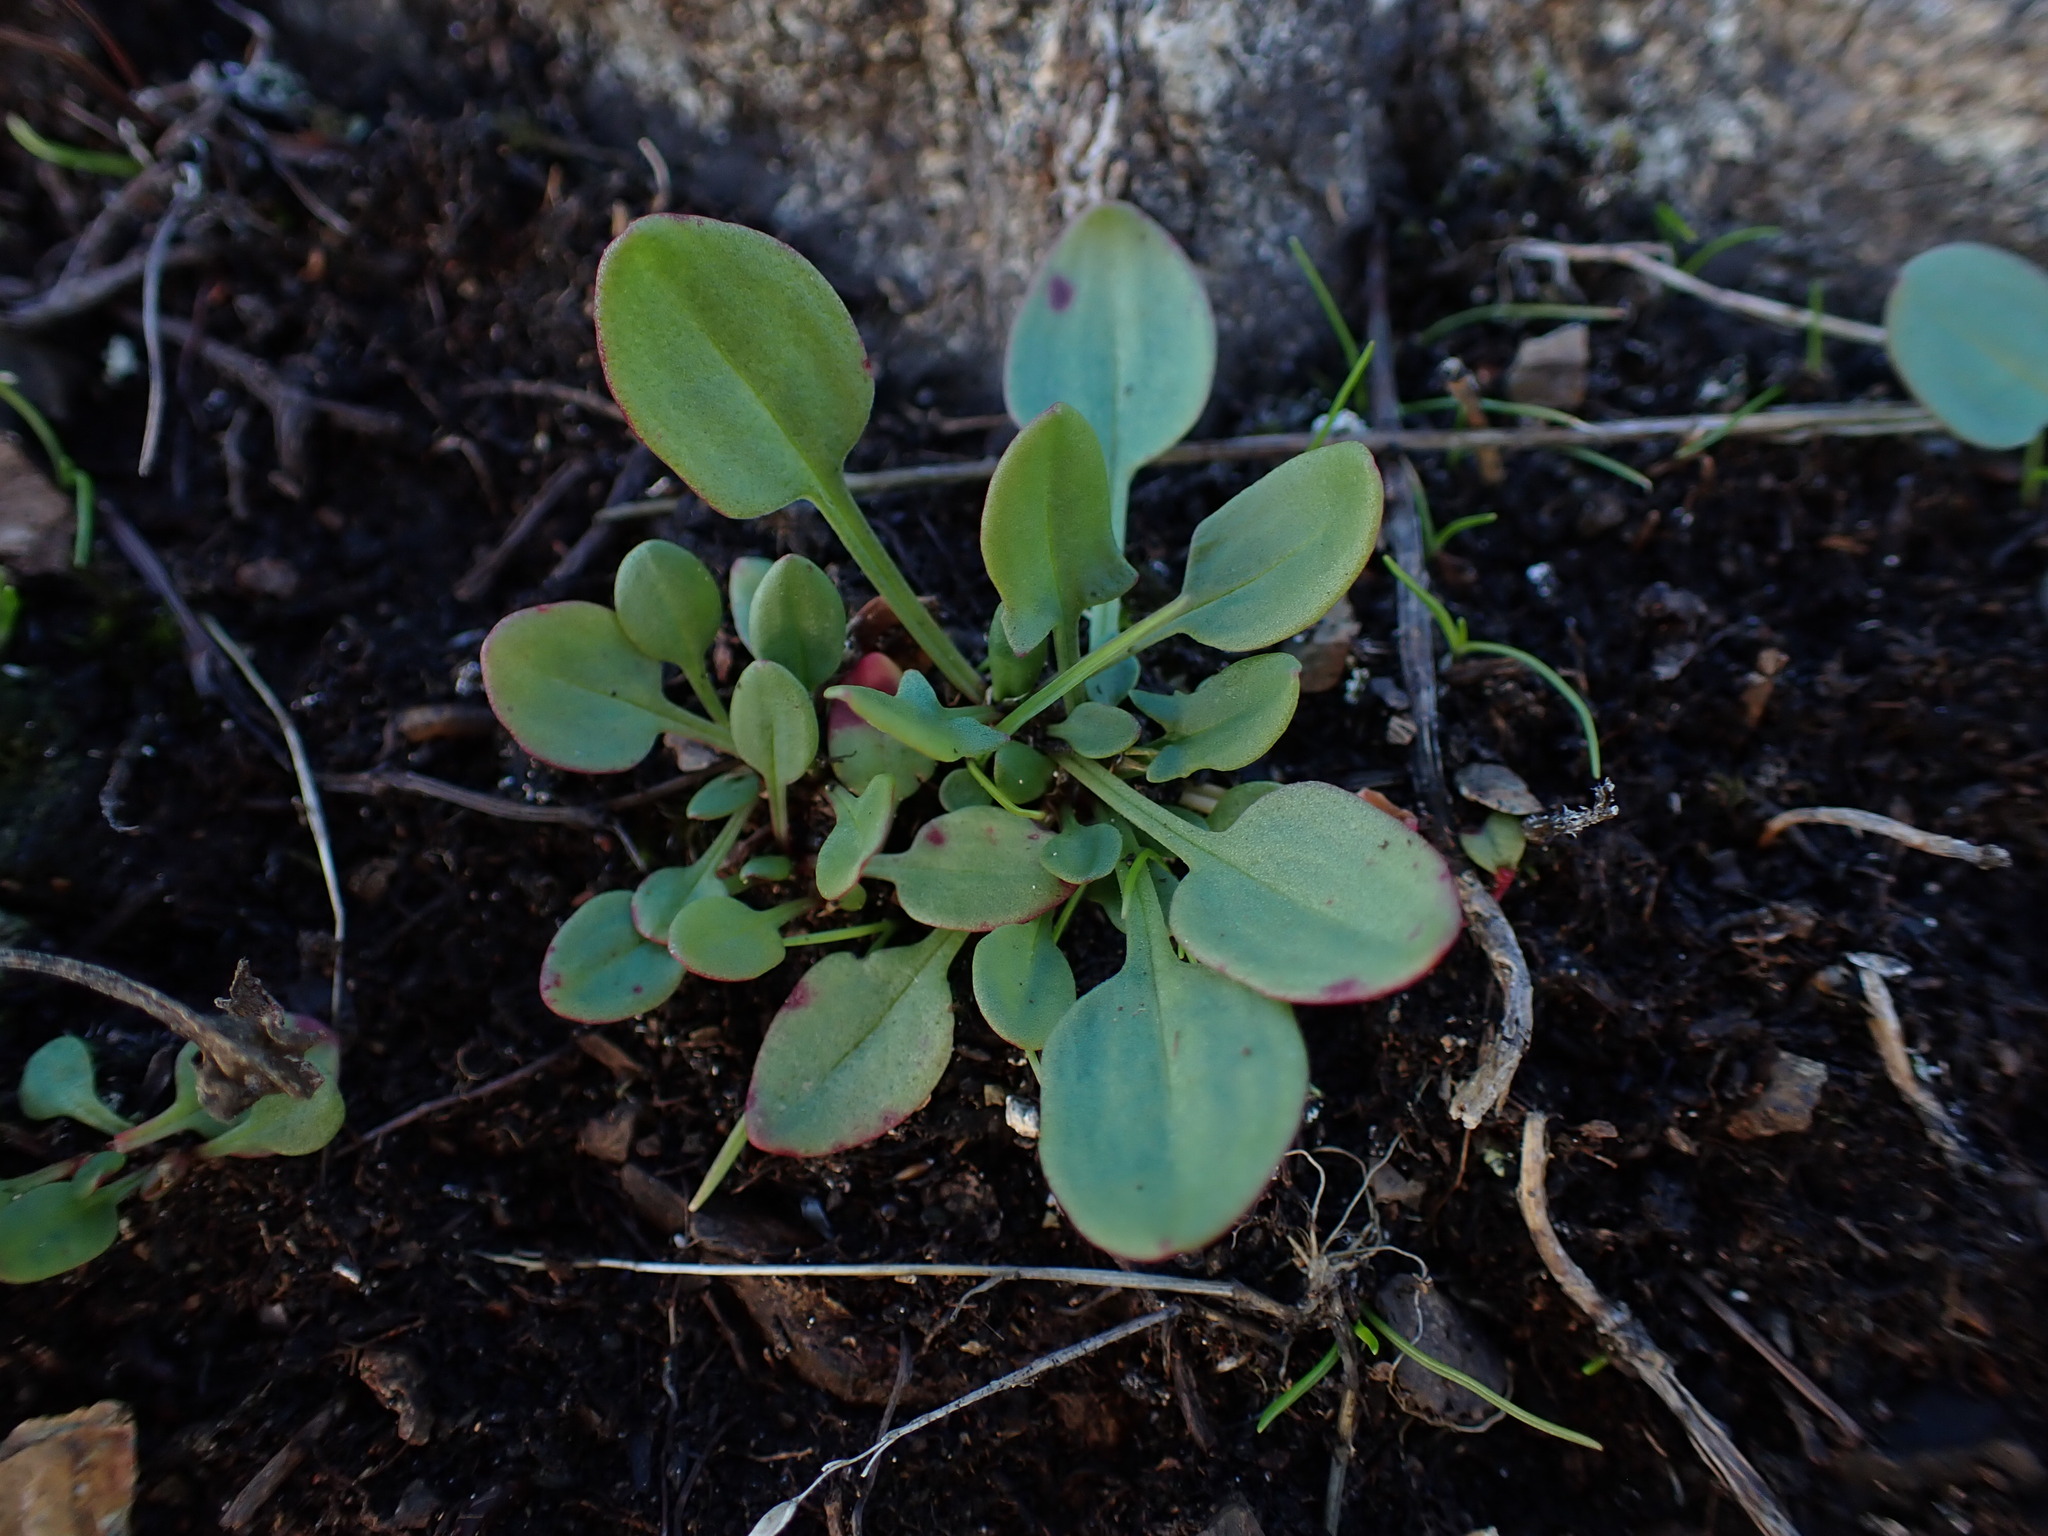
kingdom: Plantae
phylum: Tracheophyta
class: Magnoliopsida
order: Caryophyllales
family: Polygonaceae
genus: Rumex
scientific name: Rumex acetosella
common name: Common sheep sorrel
